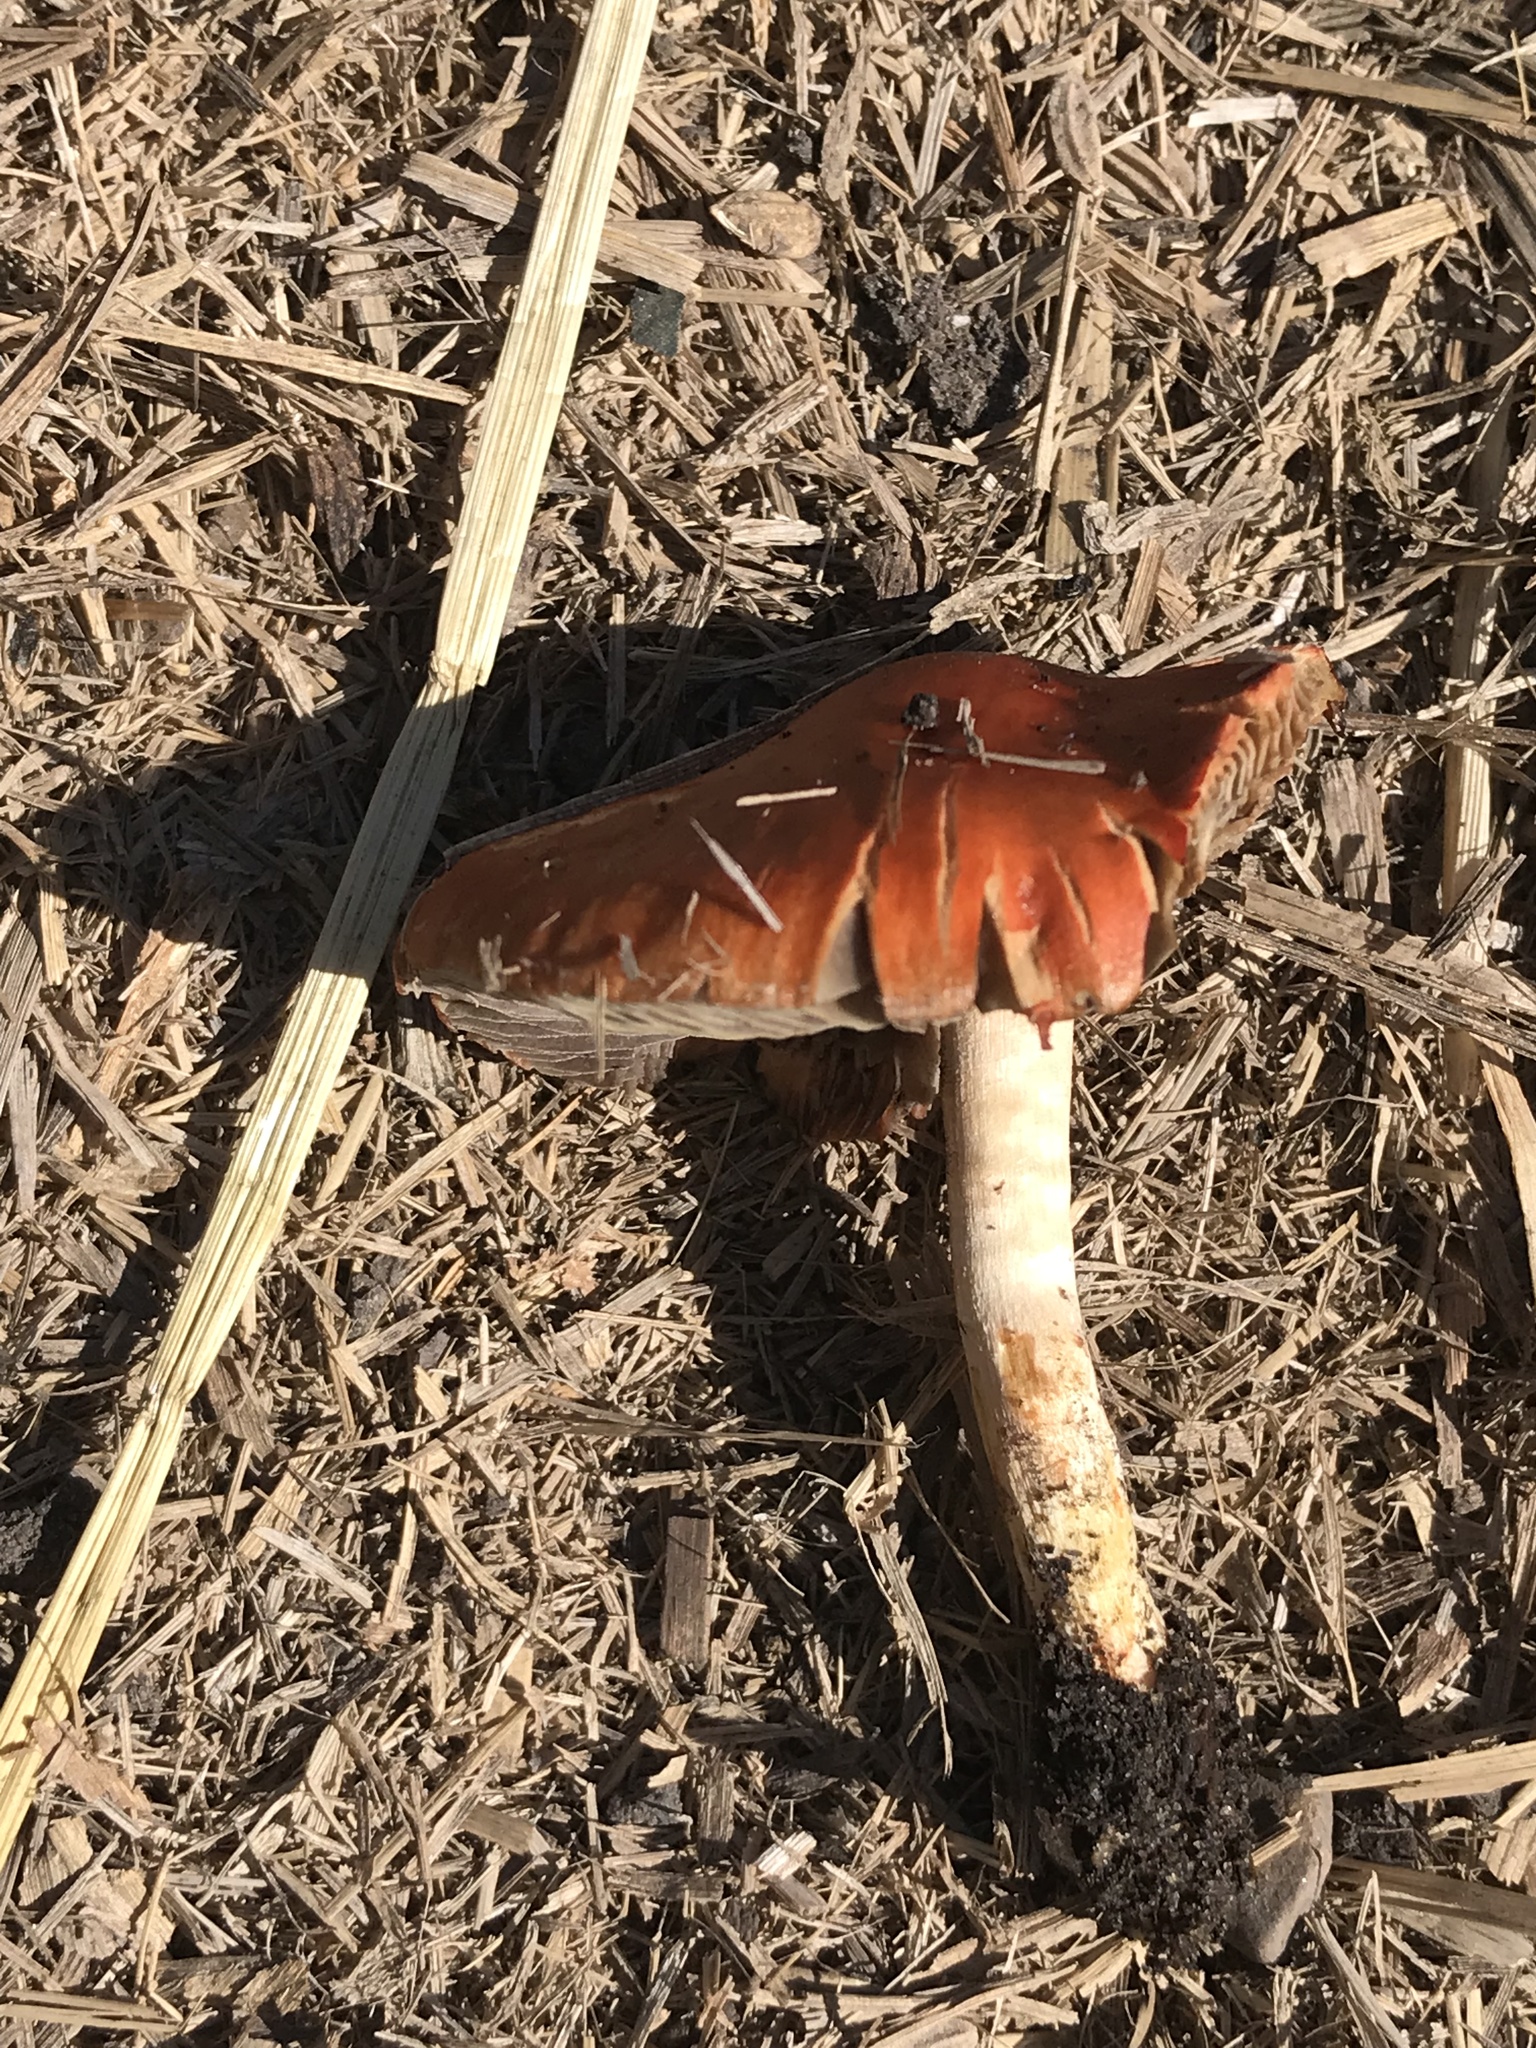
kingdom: Fungi
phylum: Basidiomycota
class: Agaricomycetes
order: Agaricales
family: Strophariaceae
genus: Leratiomyces
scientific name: Leratiomyces ceres
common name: Redlead roundhead
